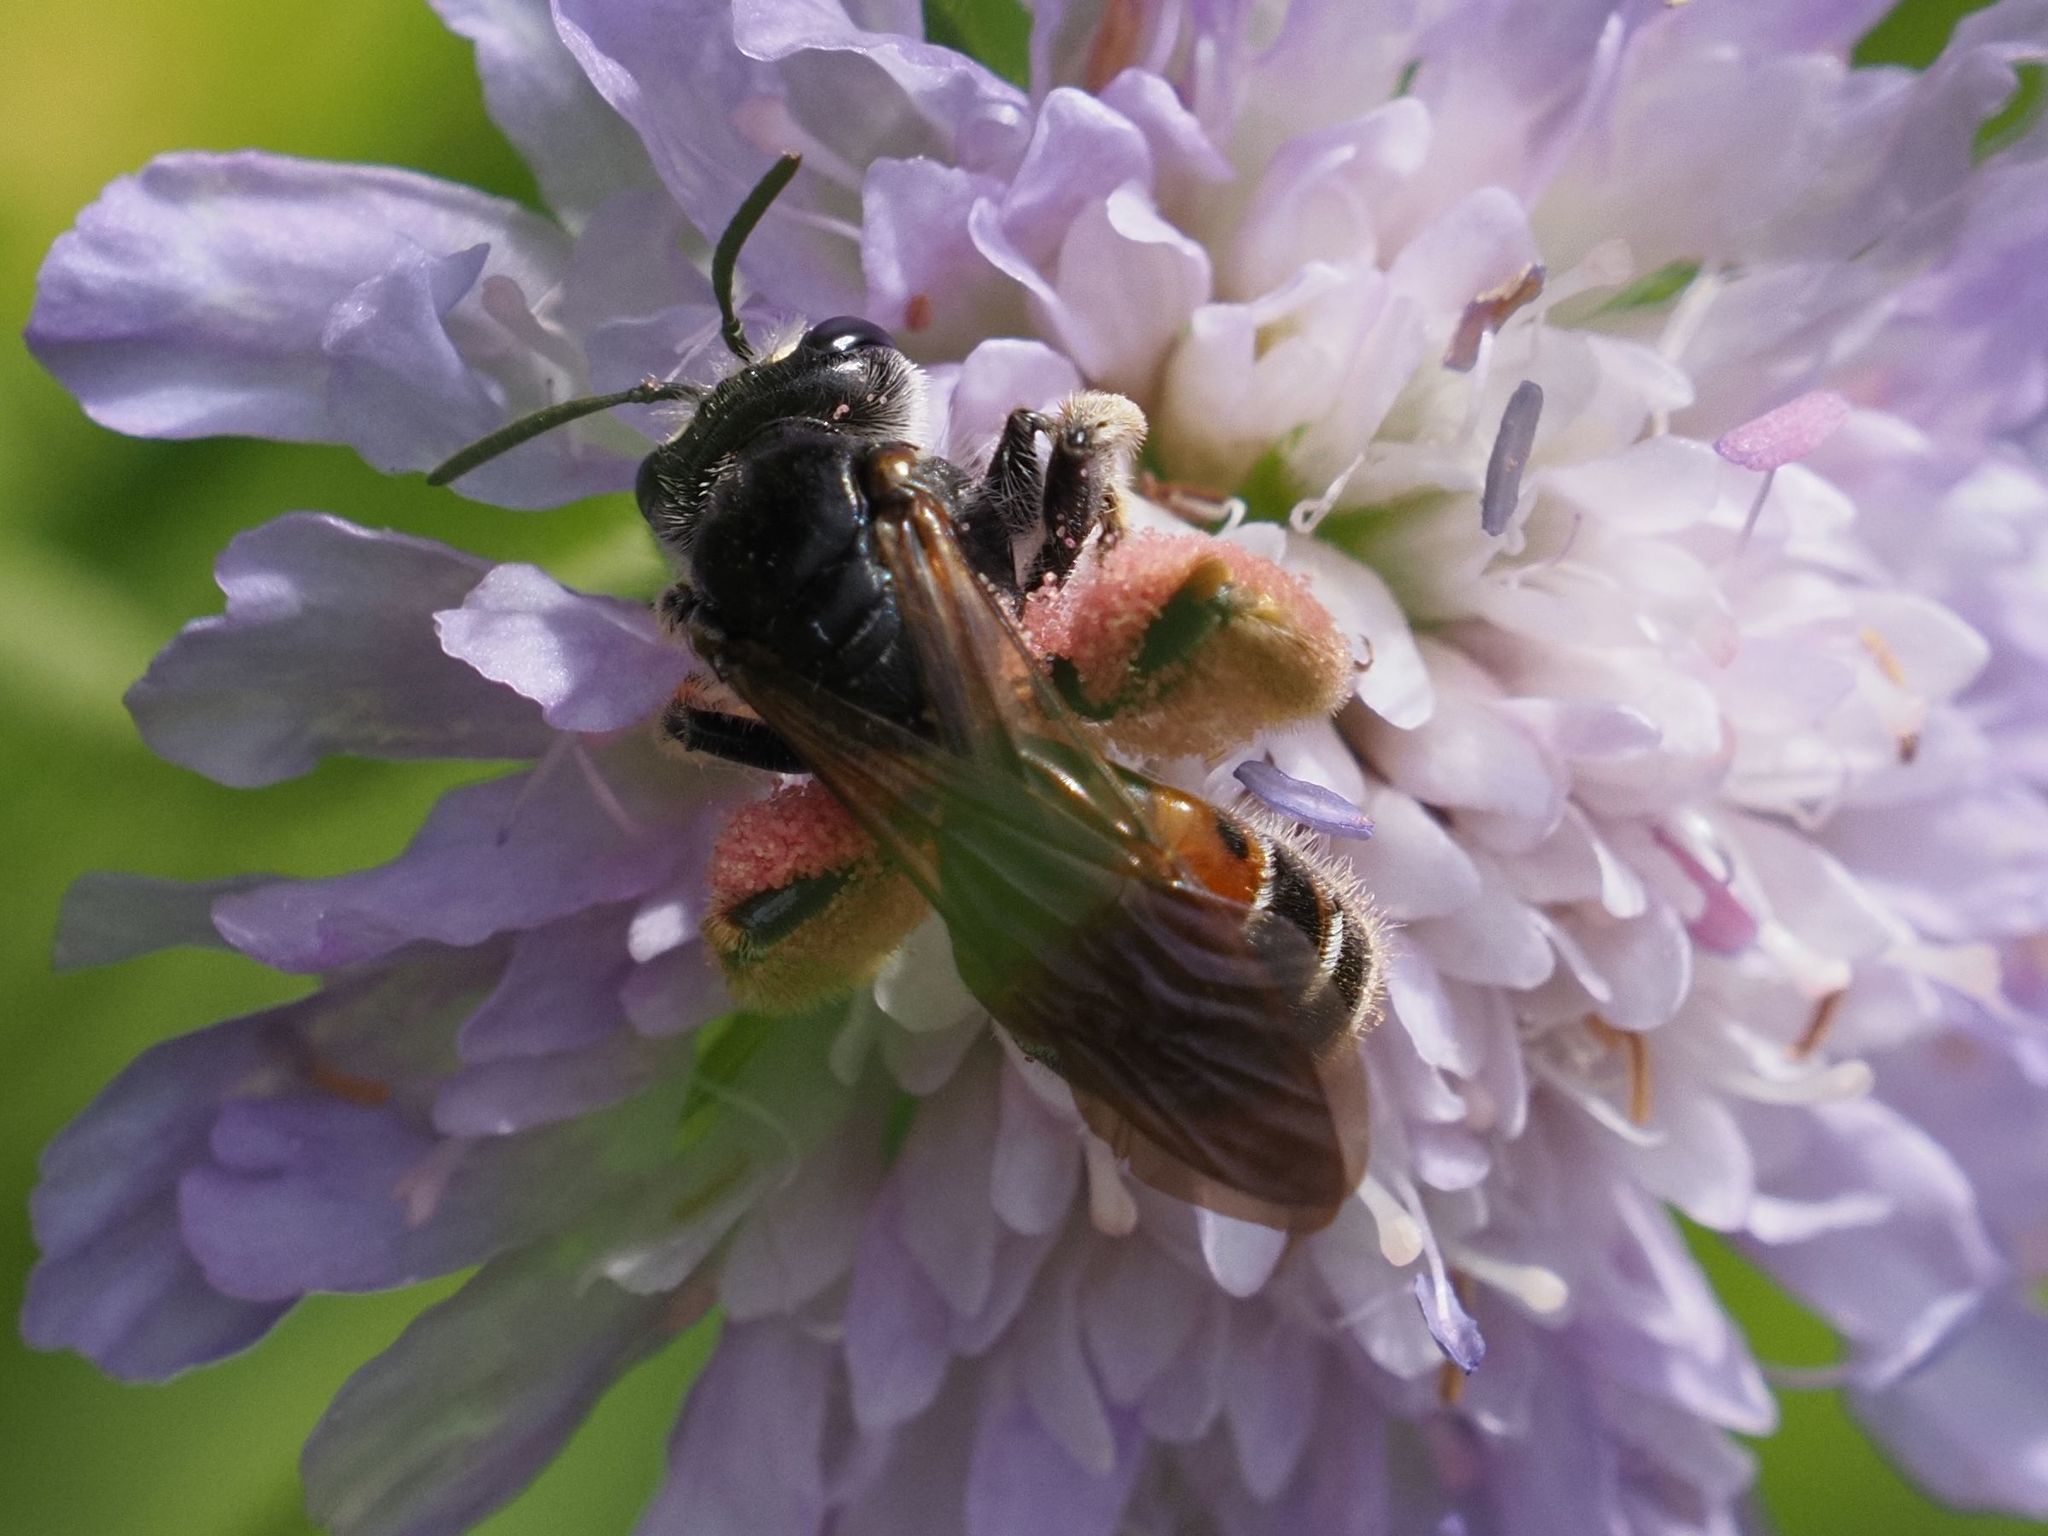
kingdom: Animalia
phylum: Arthropoda
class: Insecta
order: Hymenoptera
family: Andrenidae
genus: Andrena
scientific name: Andrena hattorfiana
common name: Large scabious mining bee
